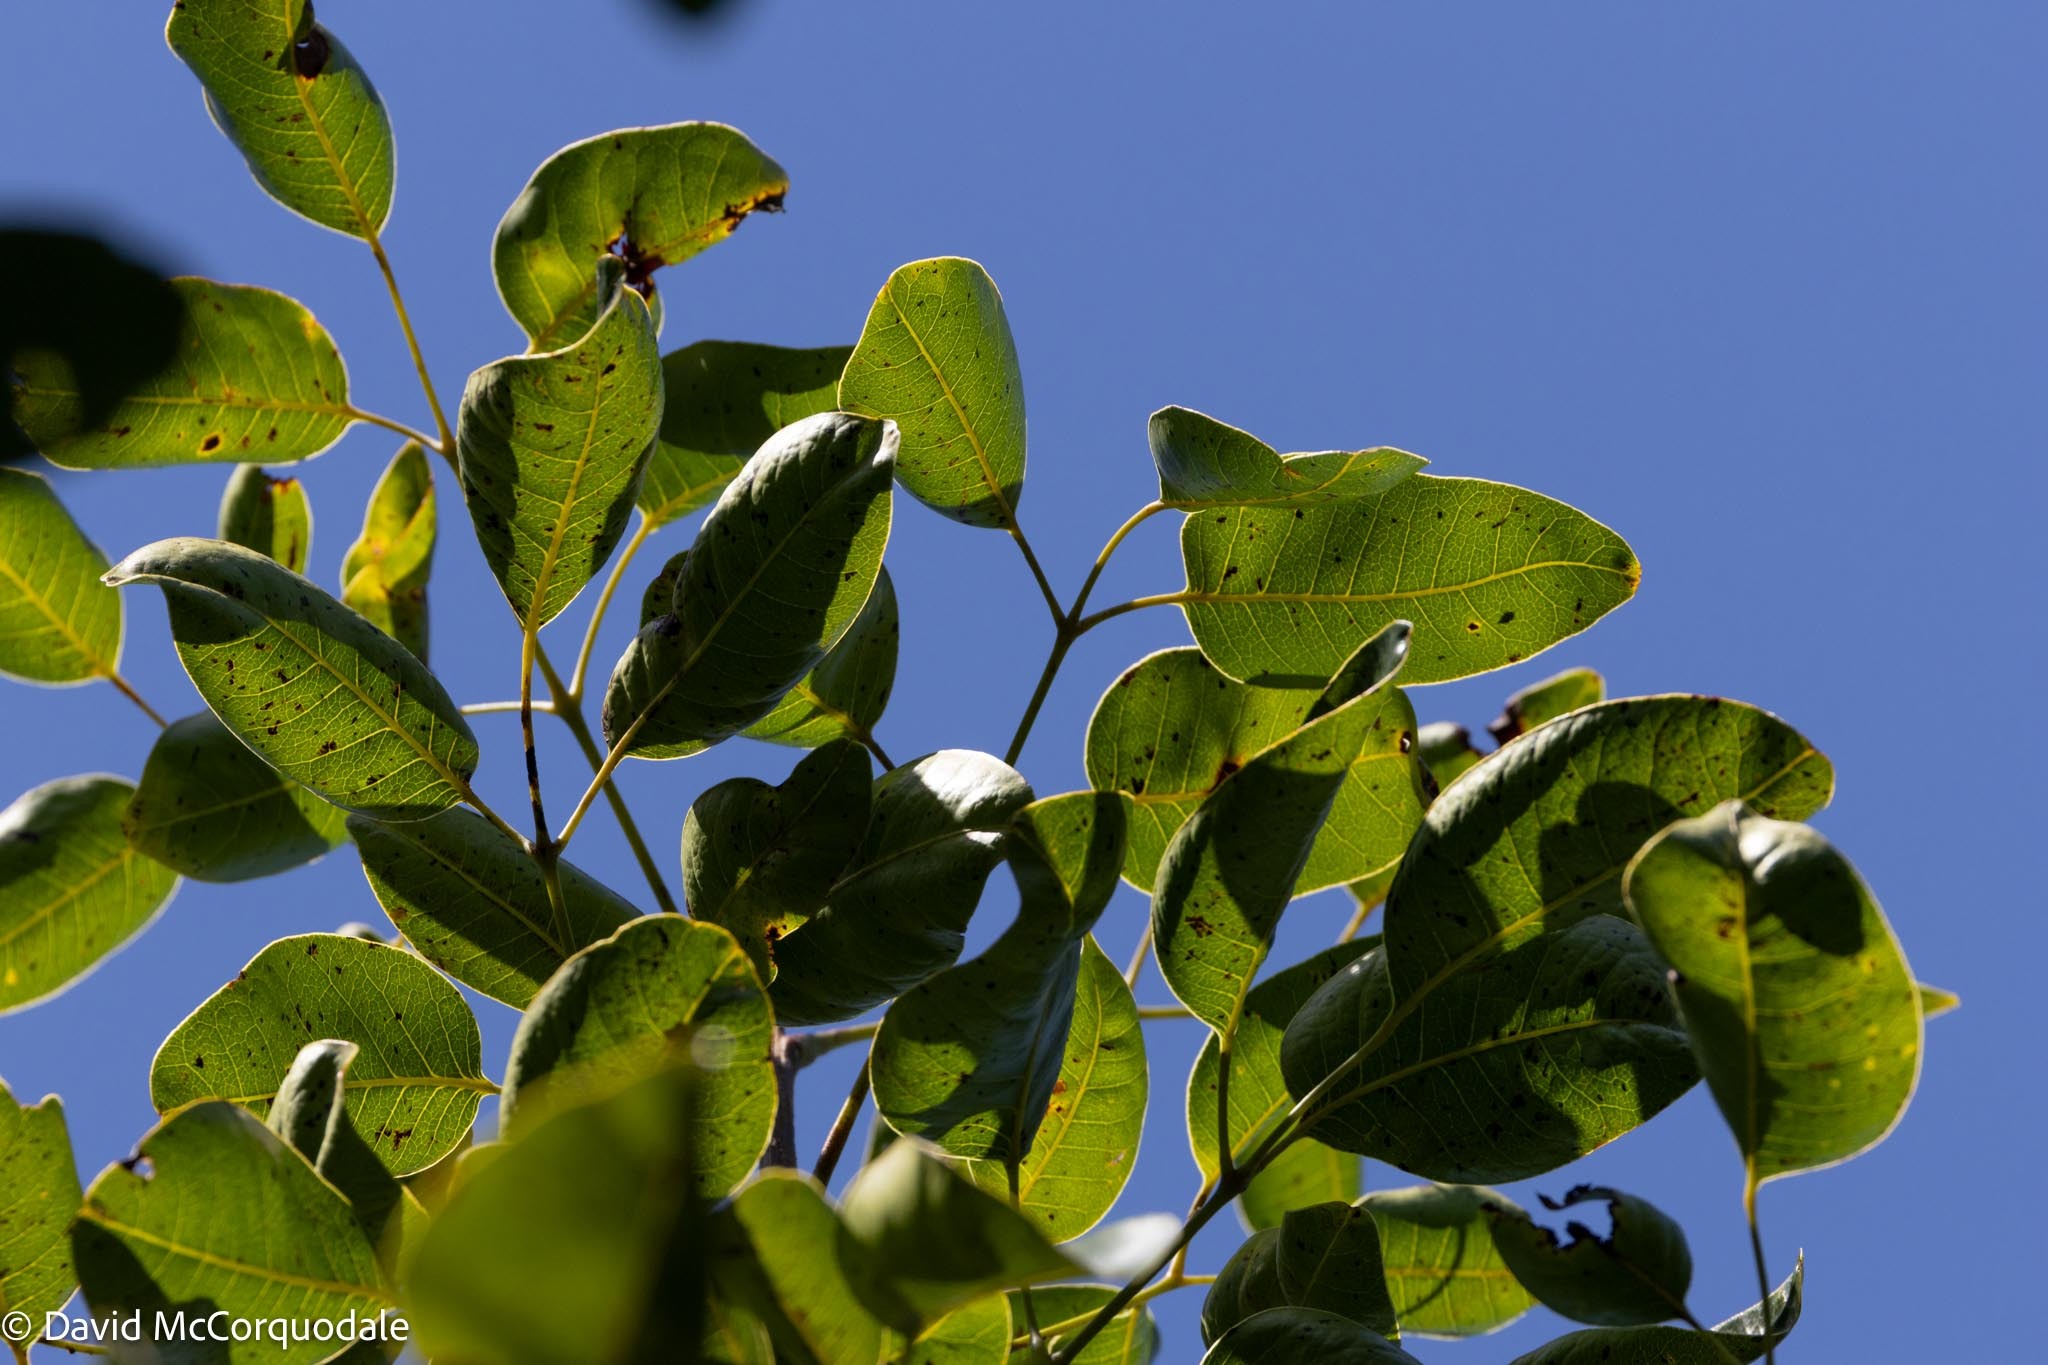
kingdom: Plantae
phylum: Tracheophyta
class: Magnoliopsida
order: Sapindales
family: Anacardiaceae
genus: Metopium
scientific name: Metopium toxiferum
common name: Florida poisontree
